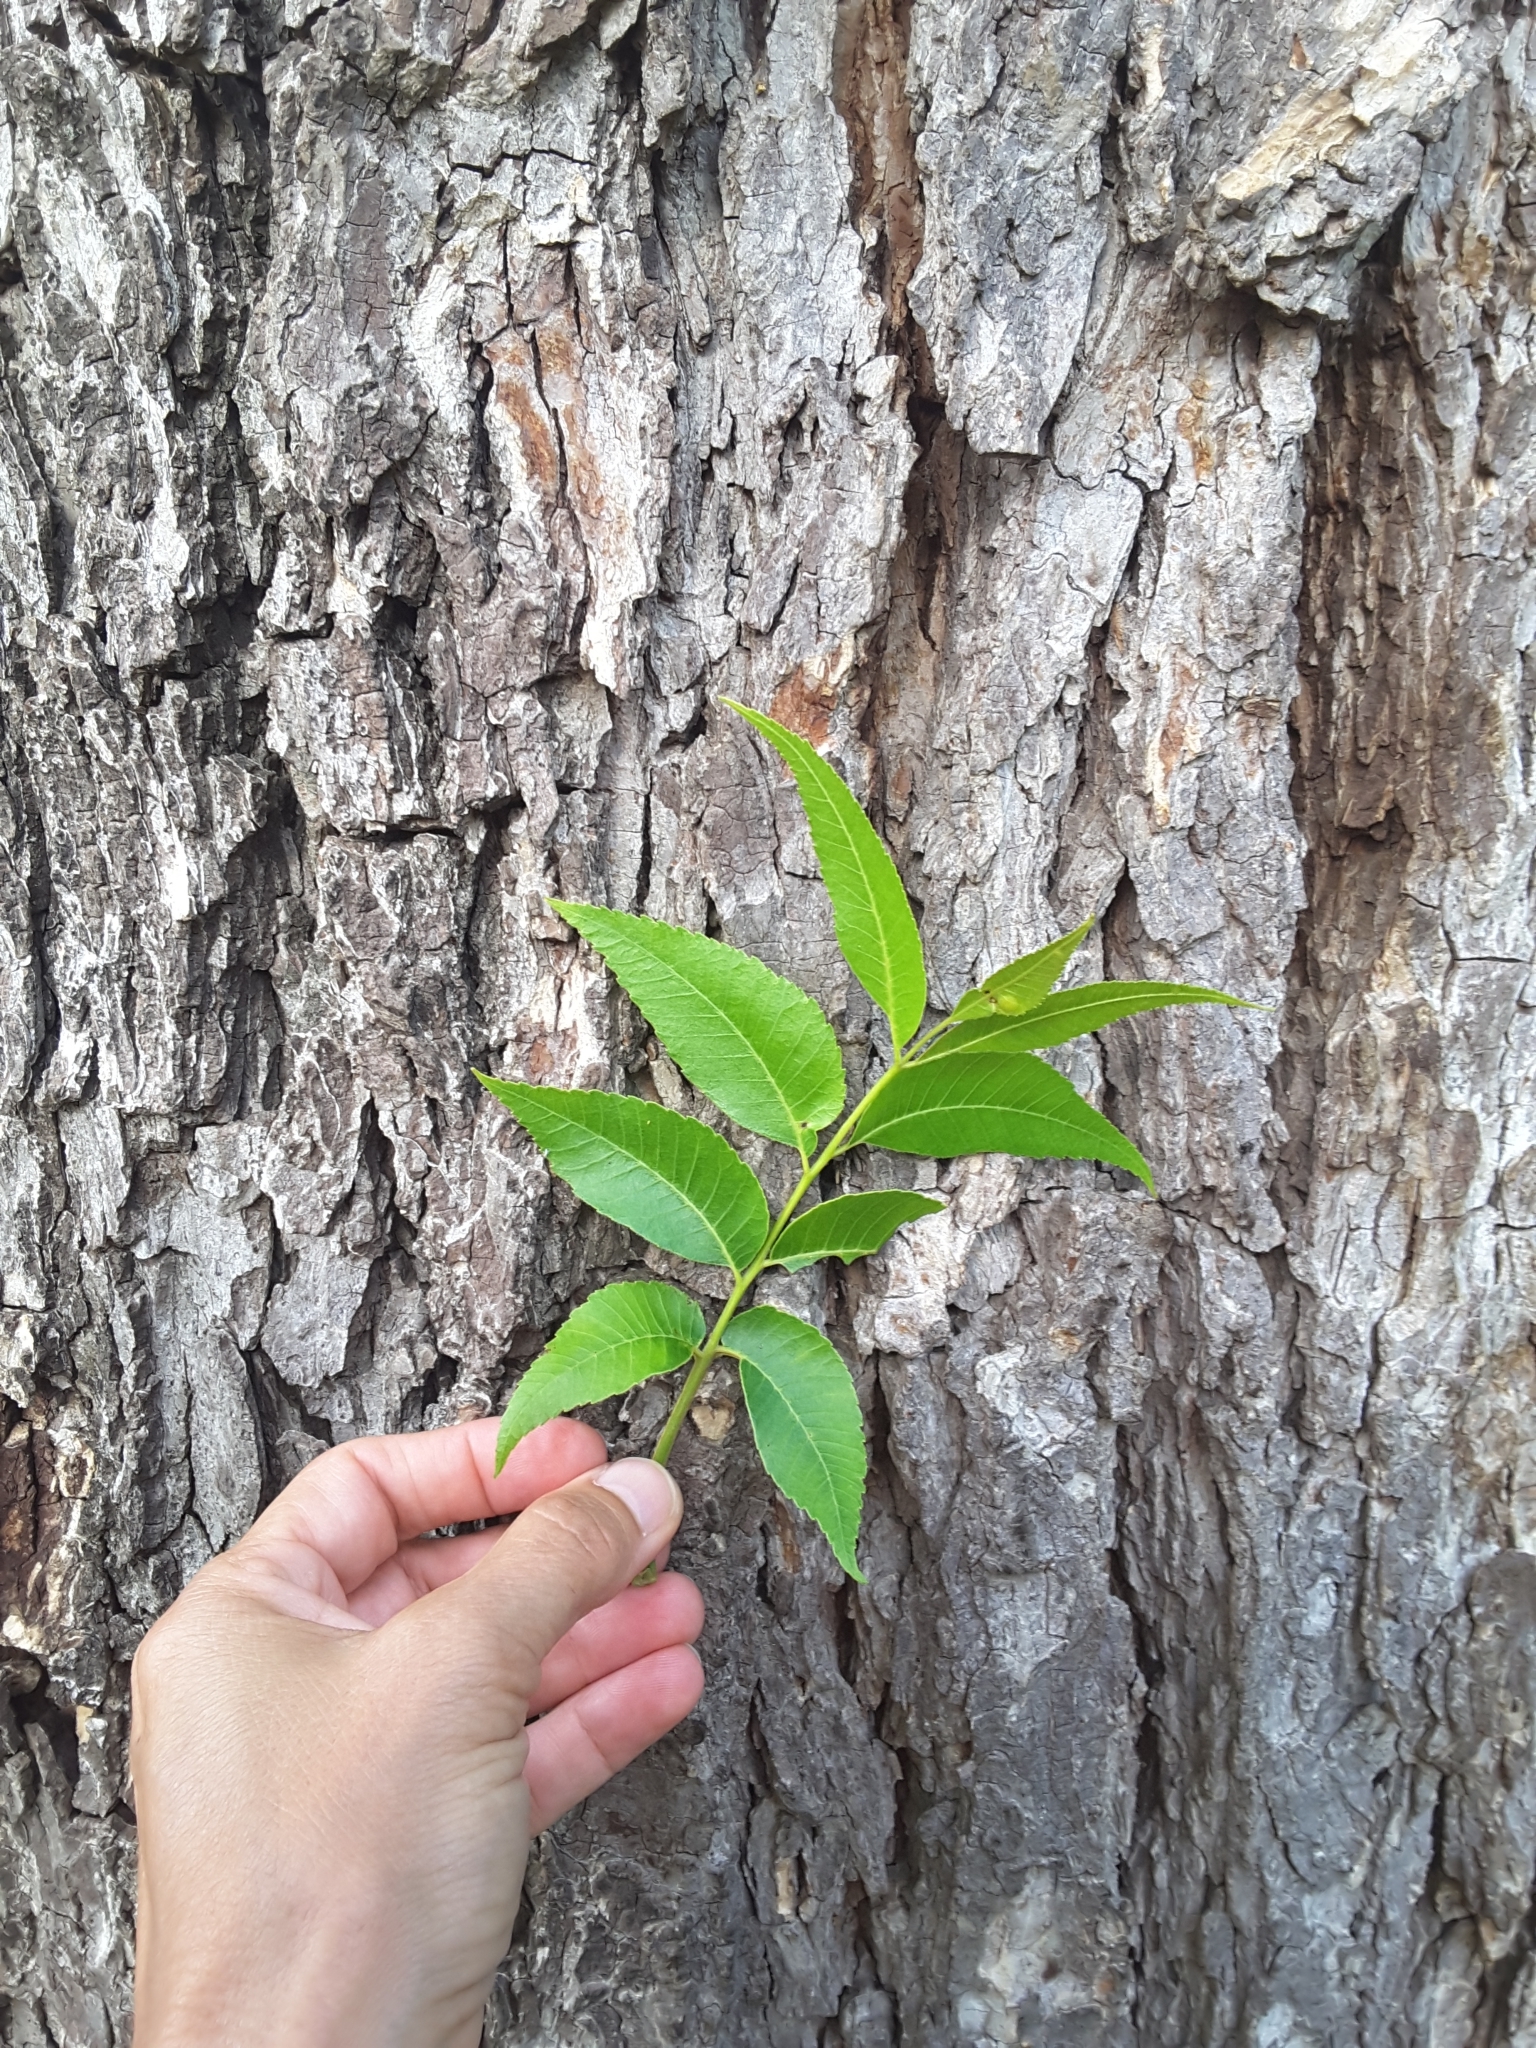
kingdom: Plantae
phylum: Tracheophyta
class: Magnoliopsida
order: Fagales
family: Juglandaceae
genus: Carya
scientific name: Carya illinoinensis
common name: Pecan
